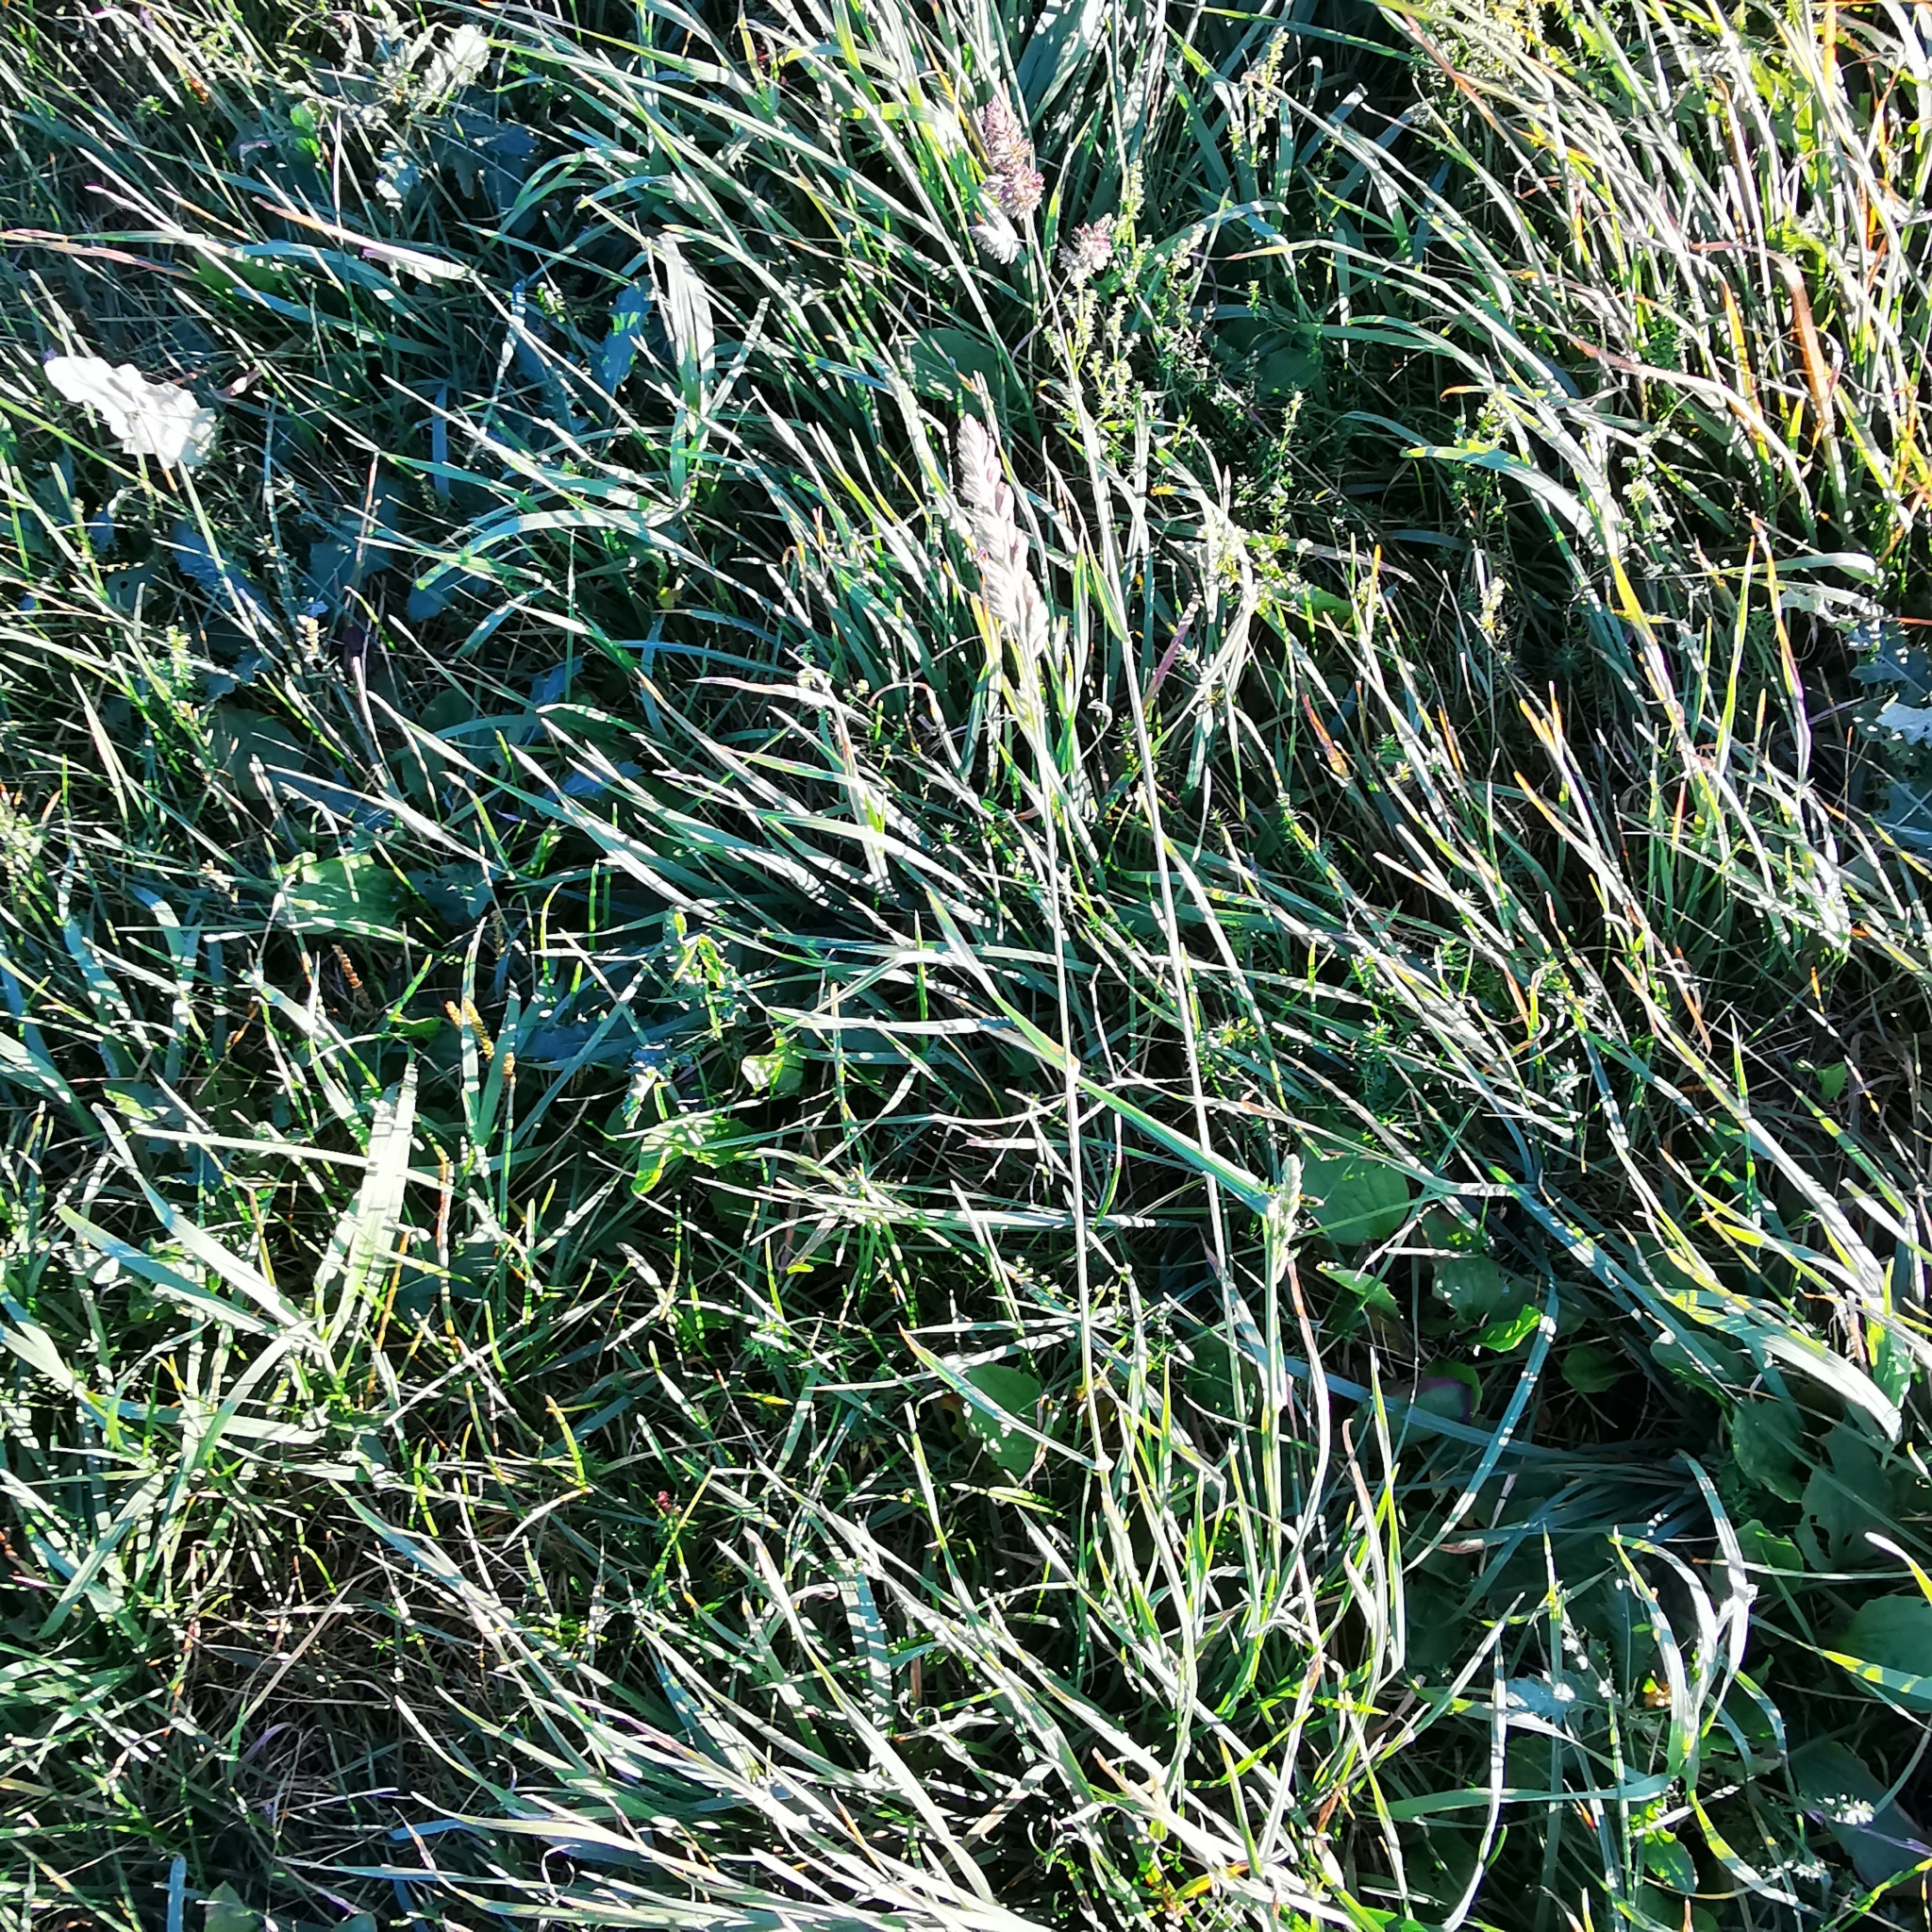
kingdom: Plantae
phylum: Tracheophyta
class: Liliopsida
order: Poales
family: Poaceae
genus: Dactylis
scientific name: Dactylis glomerata
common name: Orchardgrass
